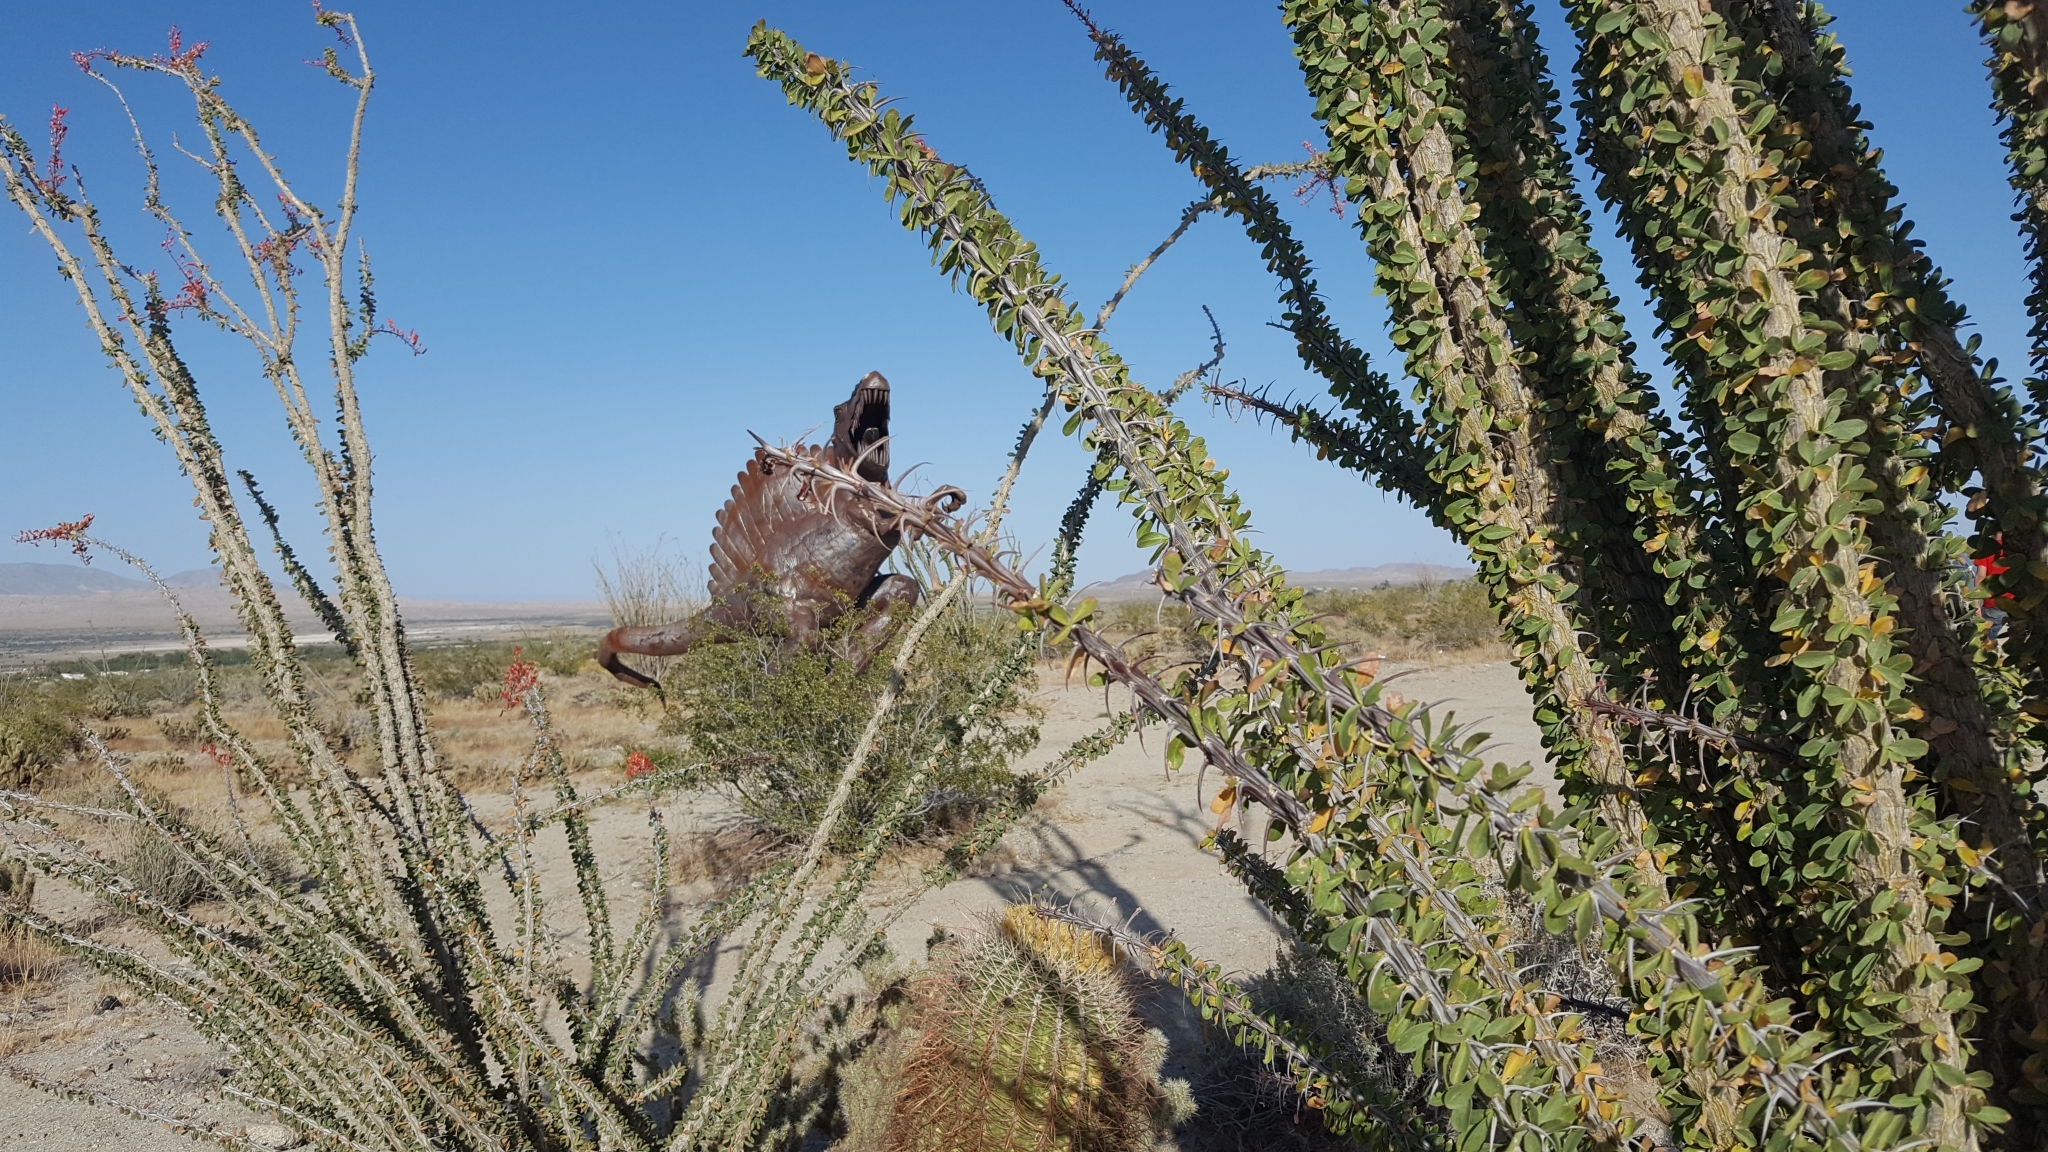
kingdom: Plantae
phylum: Tracheophyta
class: Magnoliopsida
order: Caryophyllales
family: Cactaceae
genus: Ferocactus
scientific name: Ferocactus cylindraceus
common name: California barrel cactus
